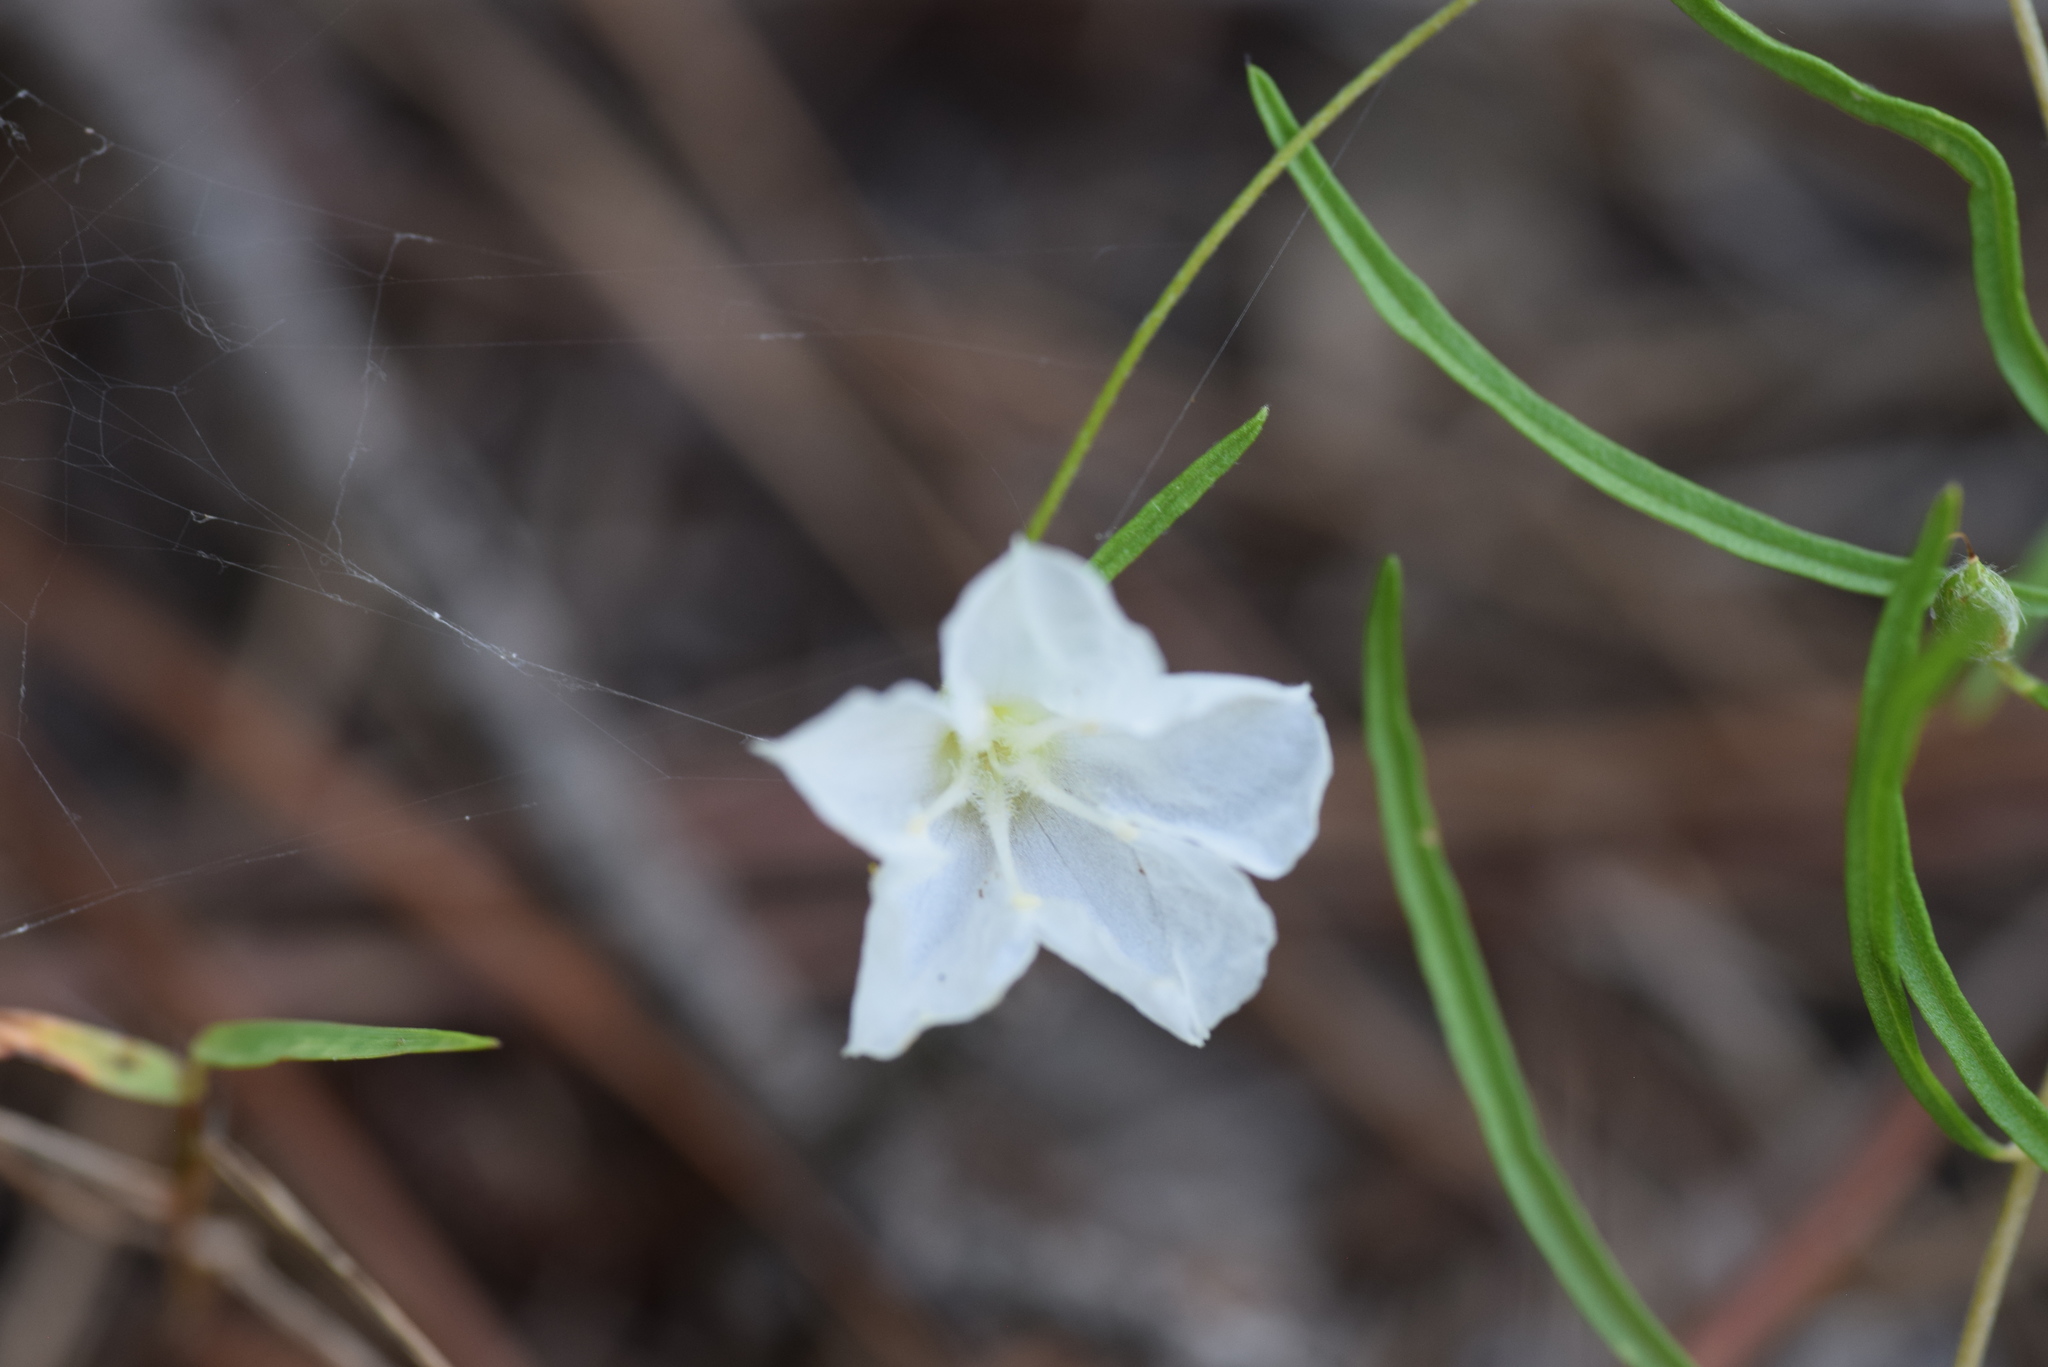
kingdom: Plantae
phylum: Tracheophyta
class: Magnoliopsida
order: Solanales
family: Convolvulaceae
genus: Stylisma
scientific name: Stylisma pickeringii
